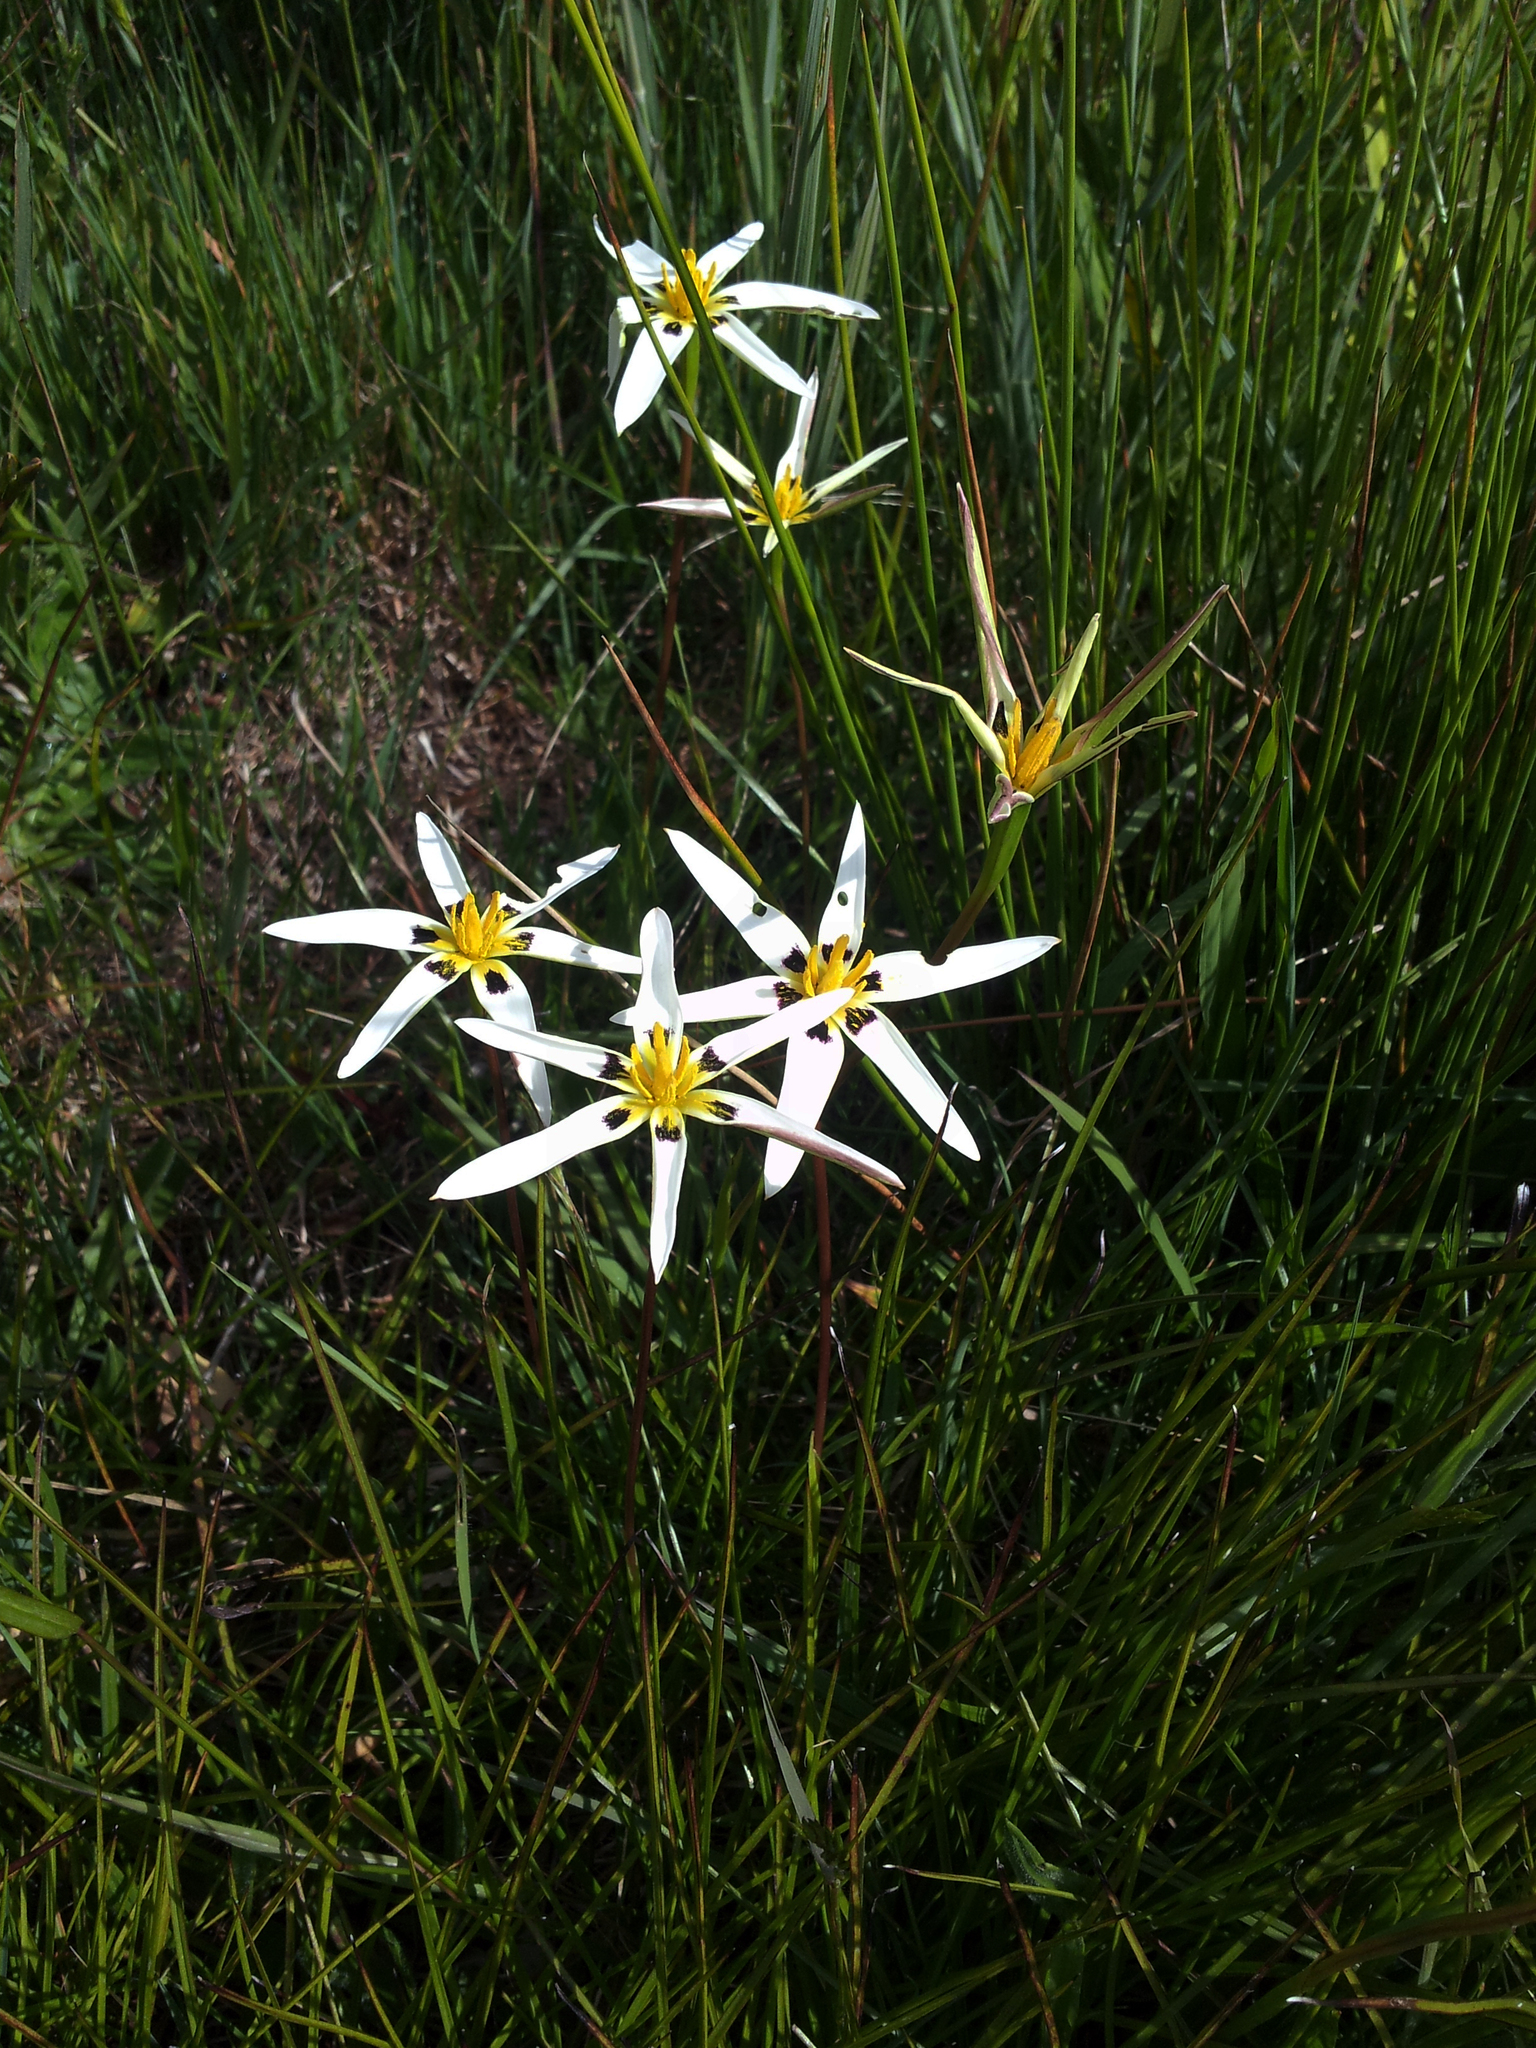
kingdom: Plantae
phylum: Tracheophyta
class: Liliopsida
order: Asparagales
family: Hypoxidaceae
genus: Pauridia
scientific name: Pauridia capensis
